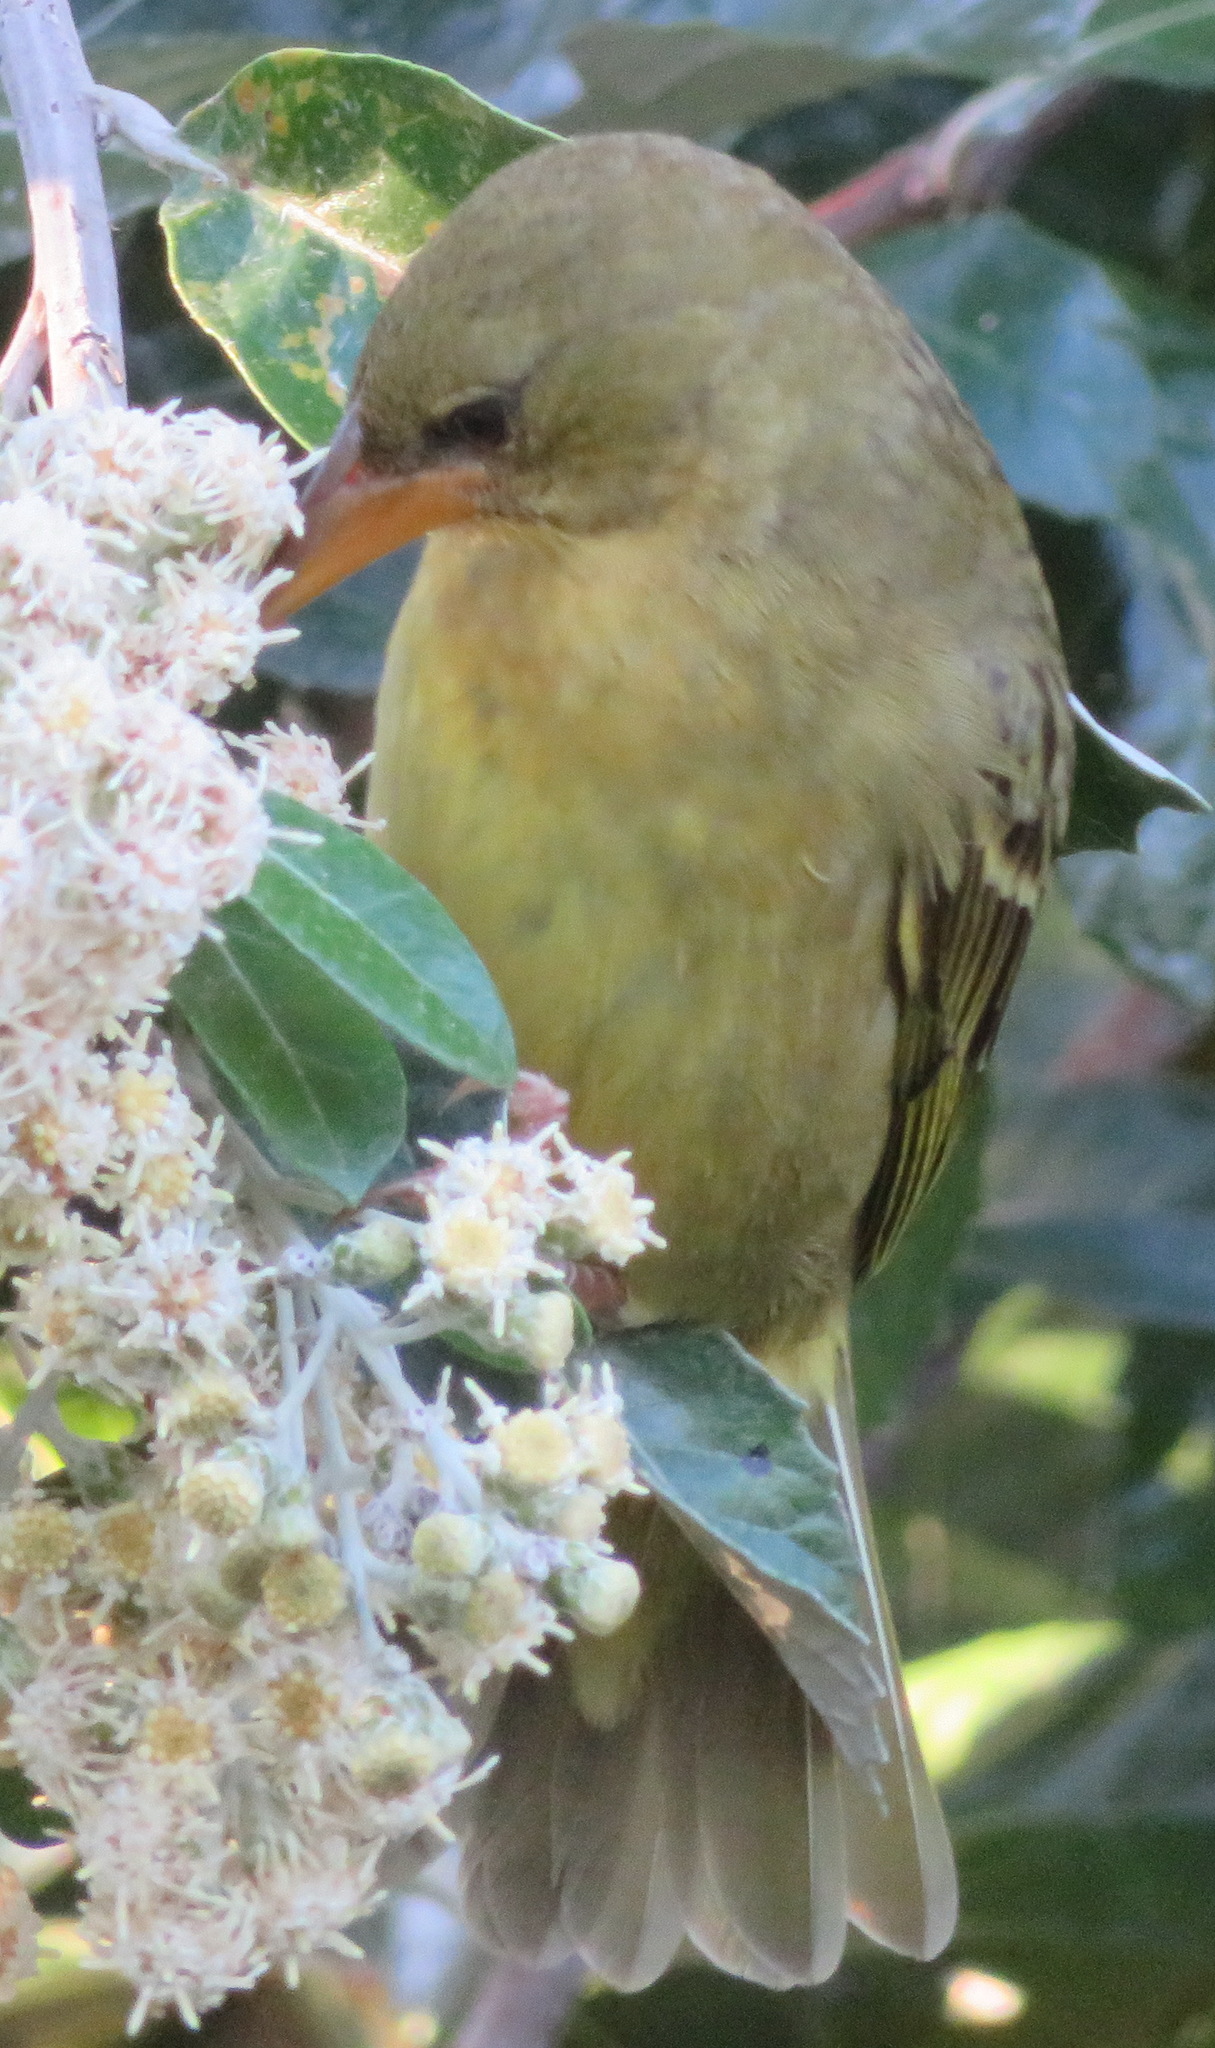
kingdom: Animalia
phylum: Chordata
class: Aves
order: Passeriformes
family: Ploceidae
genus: Ploceus
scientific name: Ploceus capensis
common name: Cape weaver
